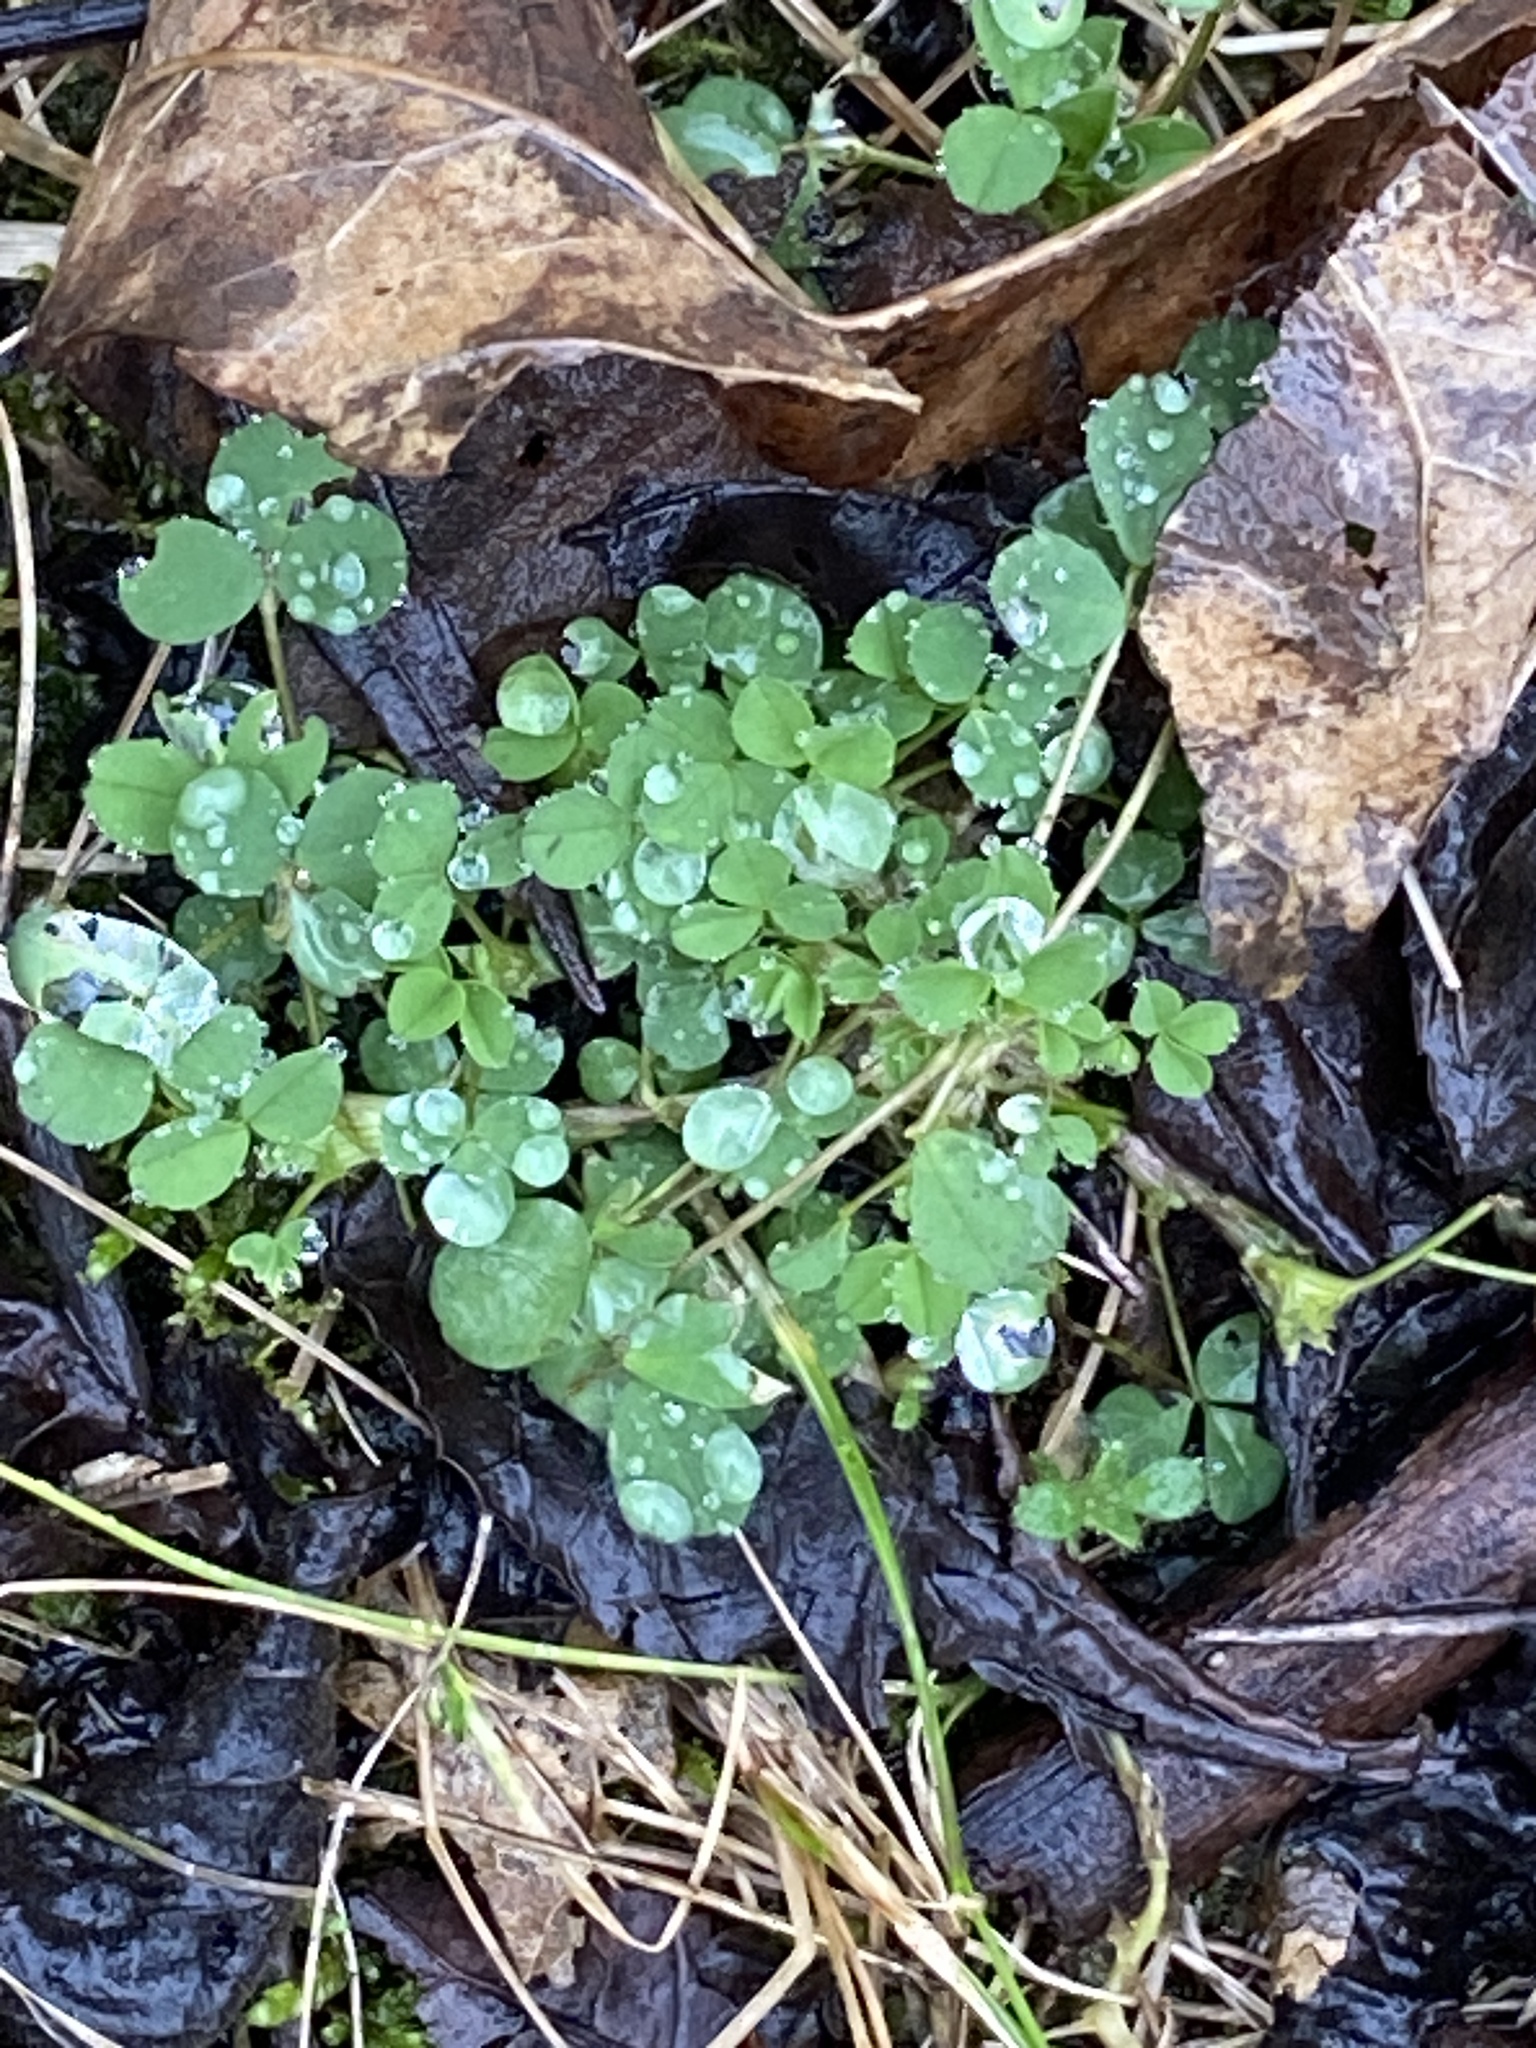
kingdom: Plantae
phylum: Tracheophyta
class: Magnoliopsida
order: Fabales
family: Fabaceae
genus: Medicago
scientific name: Medicago lupulina
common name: Black medick
